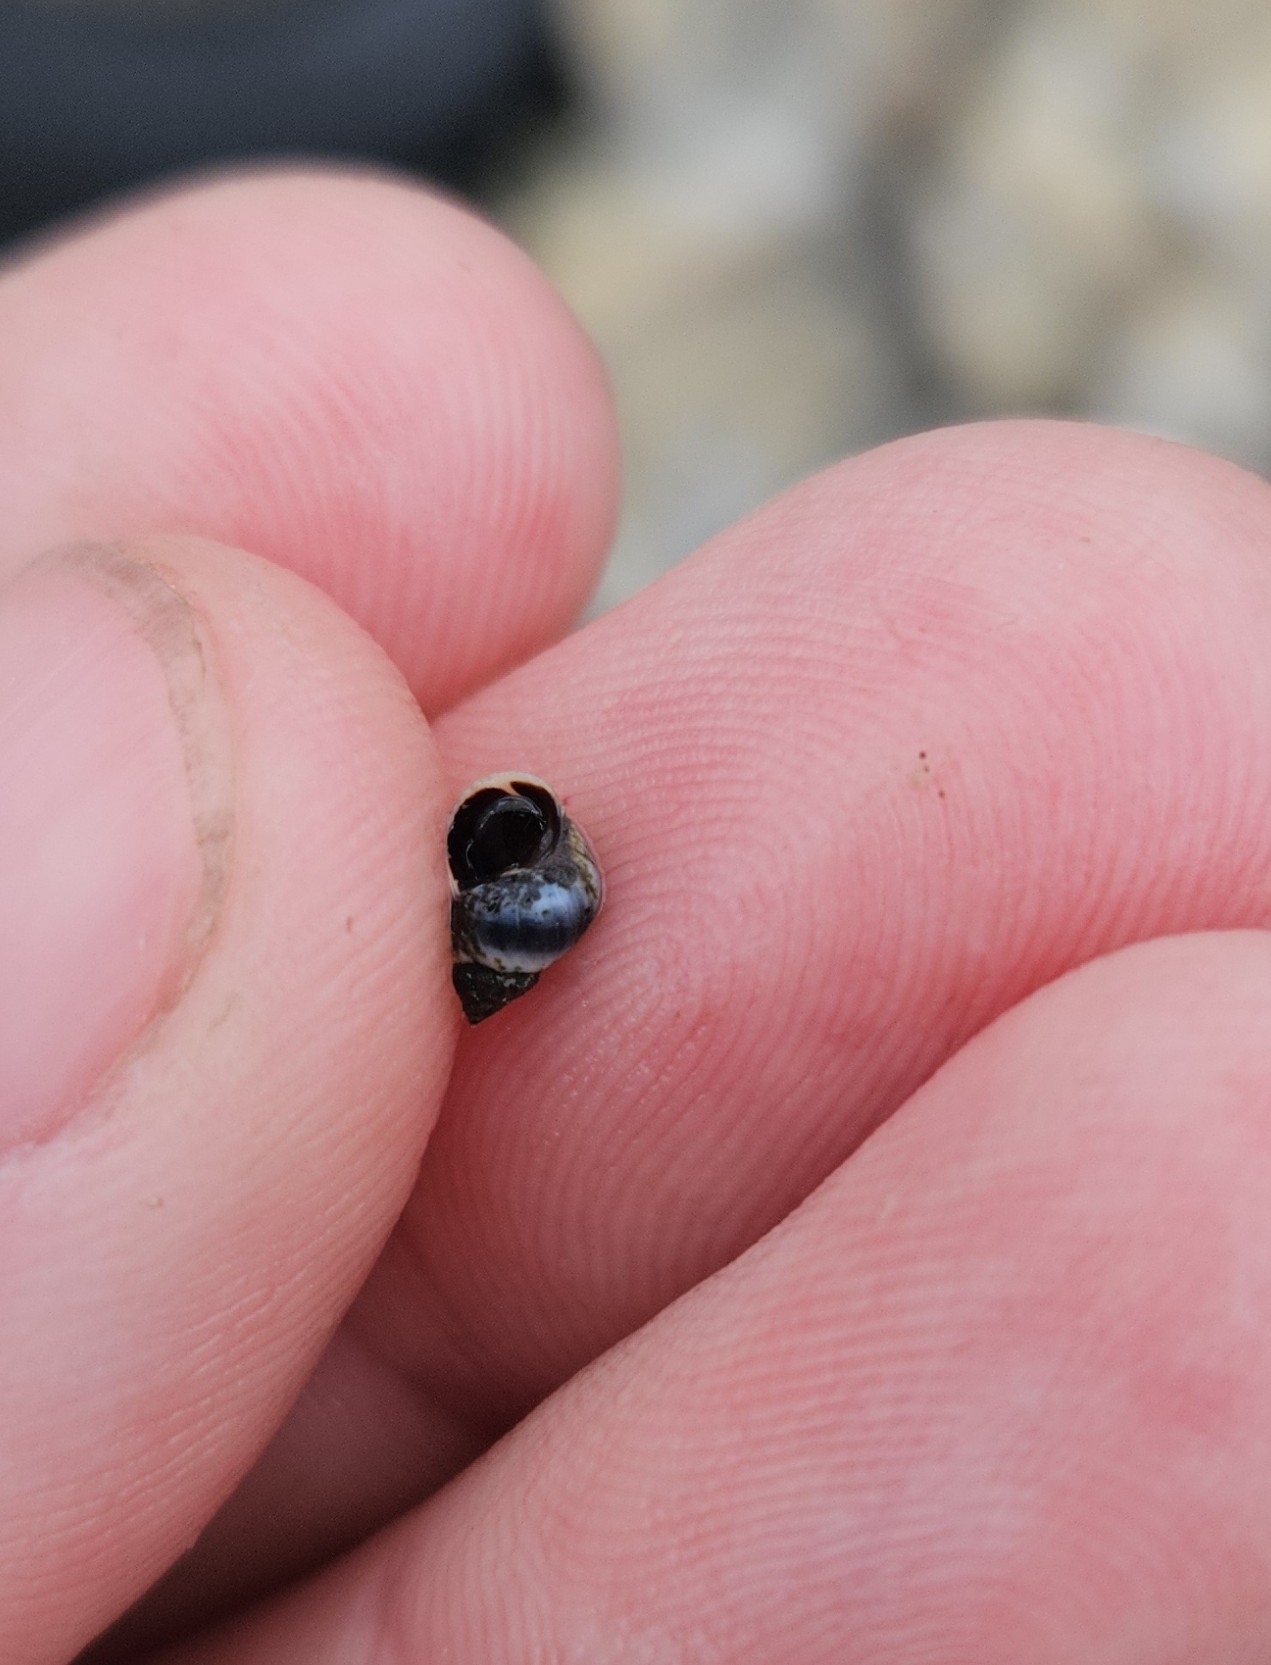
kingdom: Animalia
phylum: Mollusca
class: Gastropoda
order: Littorinimorpha
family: Littorinidae
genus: Austrolittorina
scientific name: Austrolittorina antipodum
